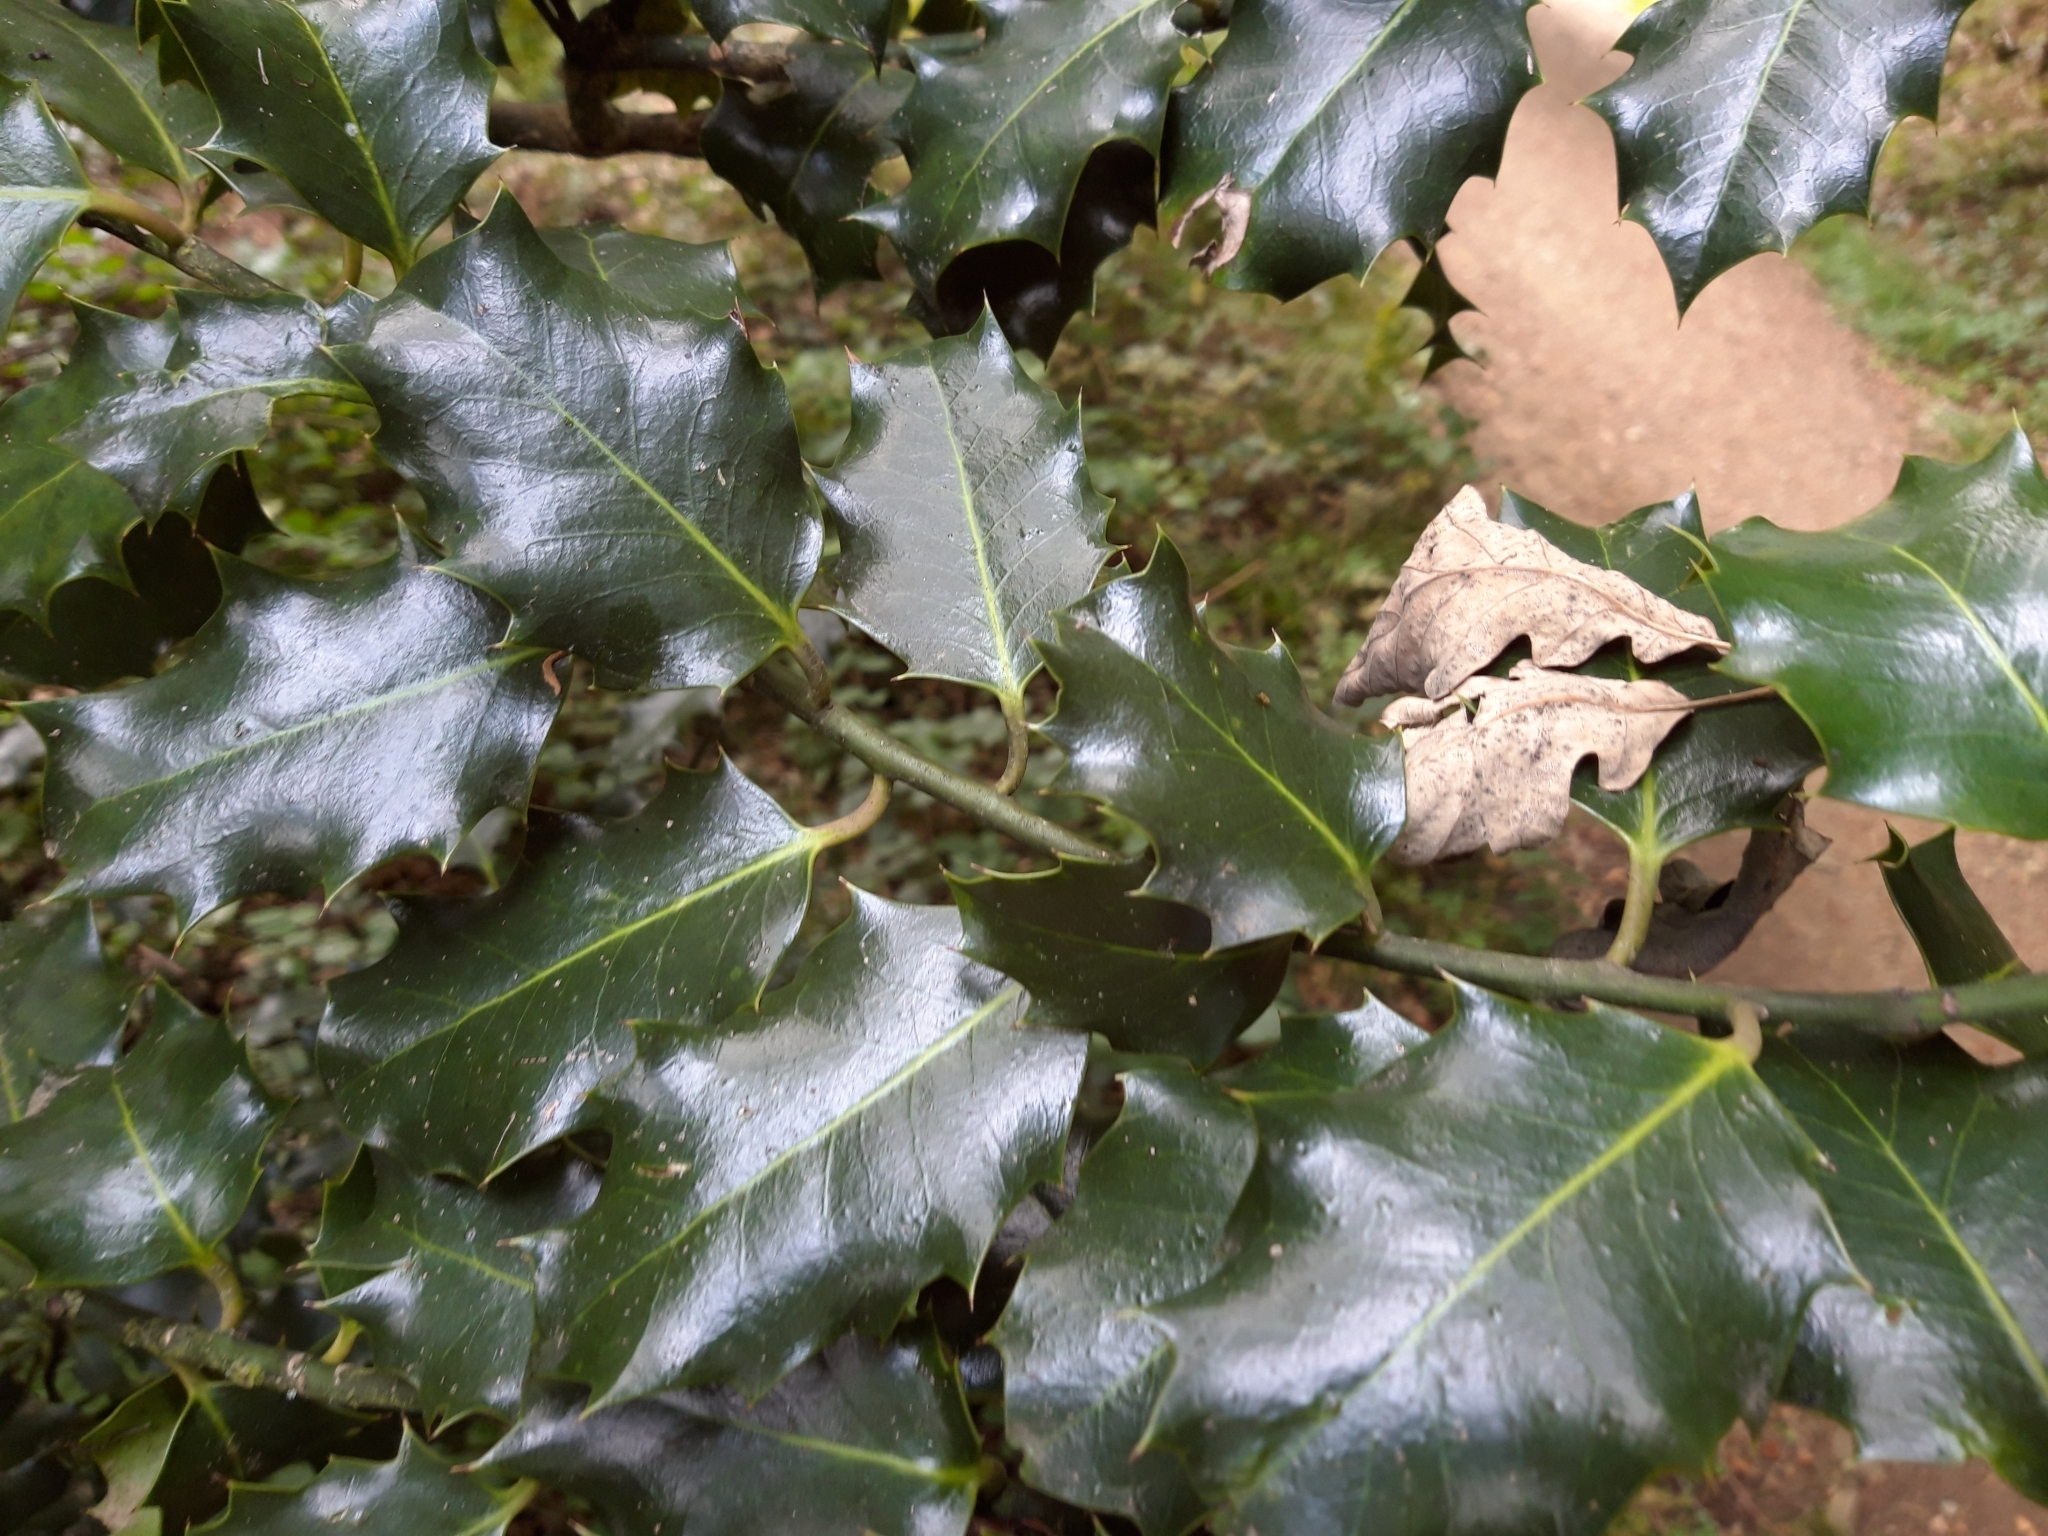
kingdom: Plantae
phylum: Tracheophyta
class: Magnoliopsida
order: Aquifoliales
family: Aquifoliaceae
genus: Ilex
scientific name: Ilex aquifolium
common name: English holly
